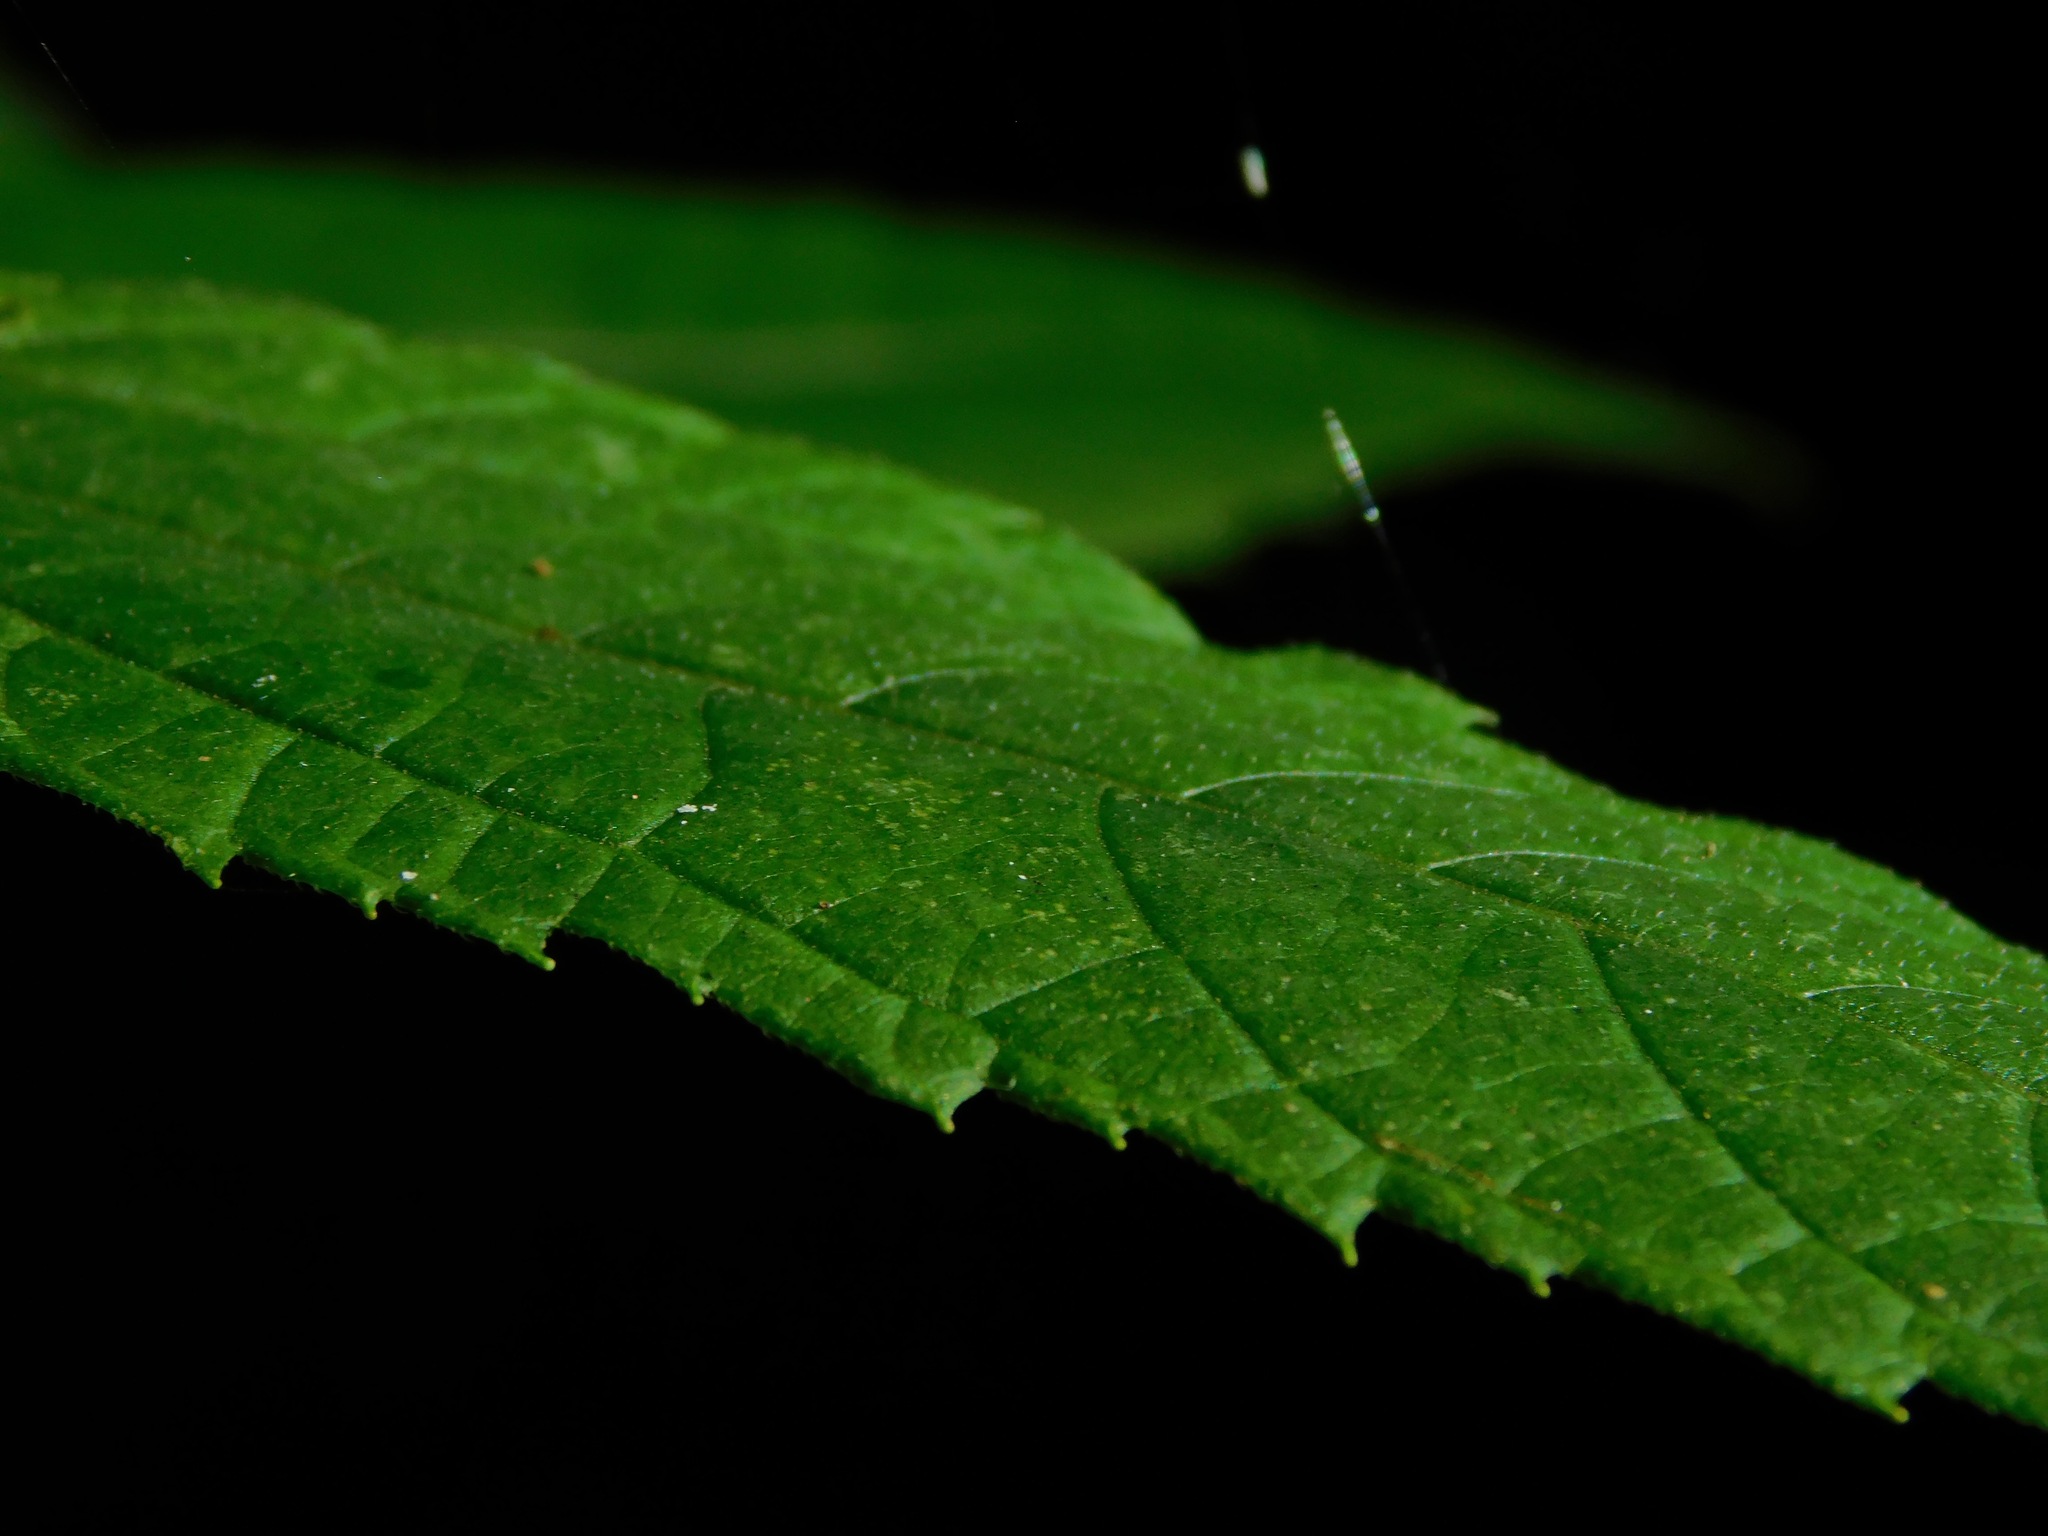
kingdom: Plantae
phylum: Tracheophyta
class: Magnoliopsida
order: Asterales
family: Asteraceae
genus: Helianthus
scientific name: Helianthus decapetalus
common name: Thin-leaved sunflower
